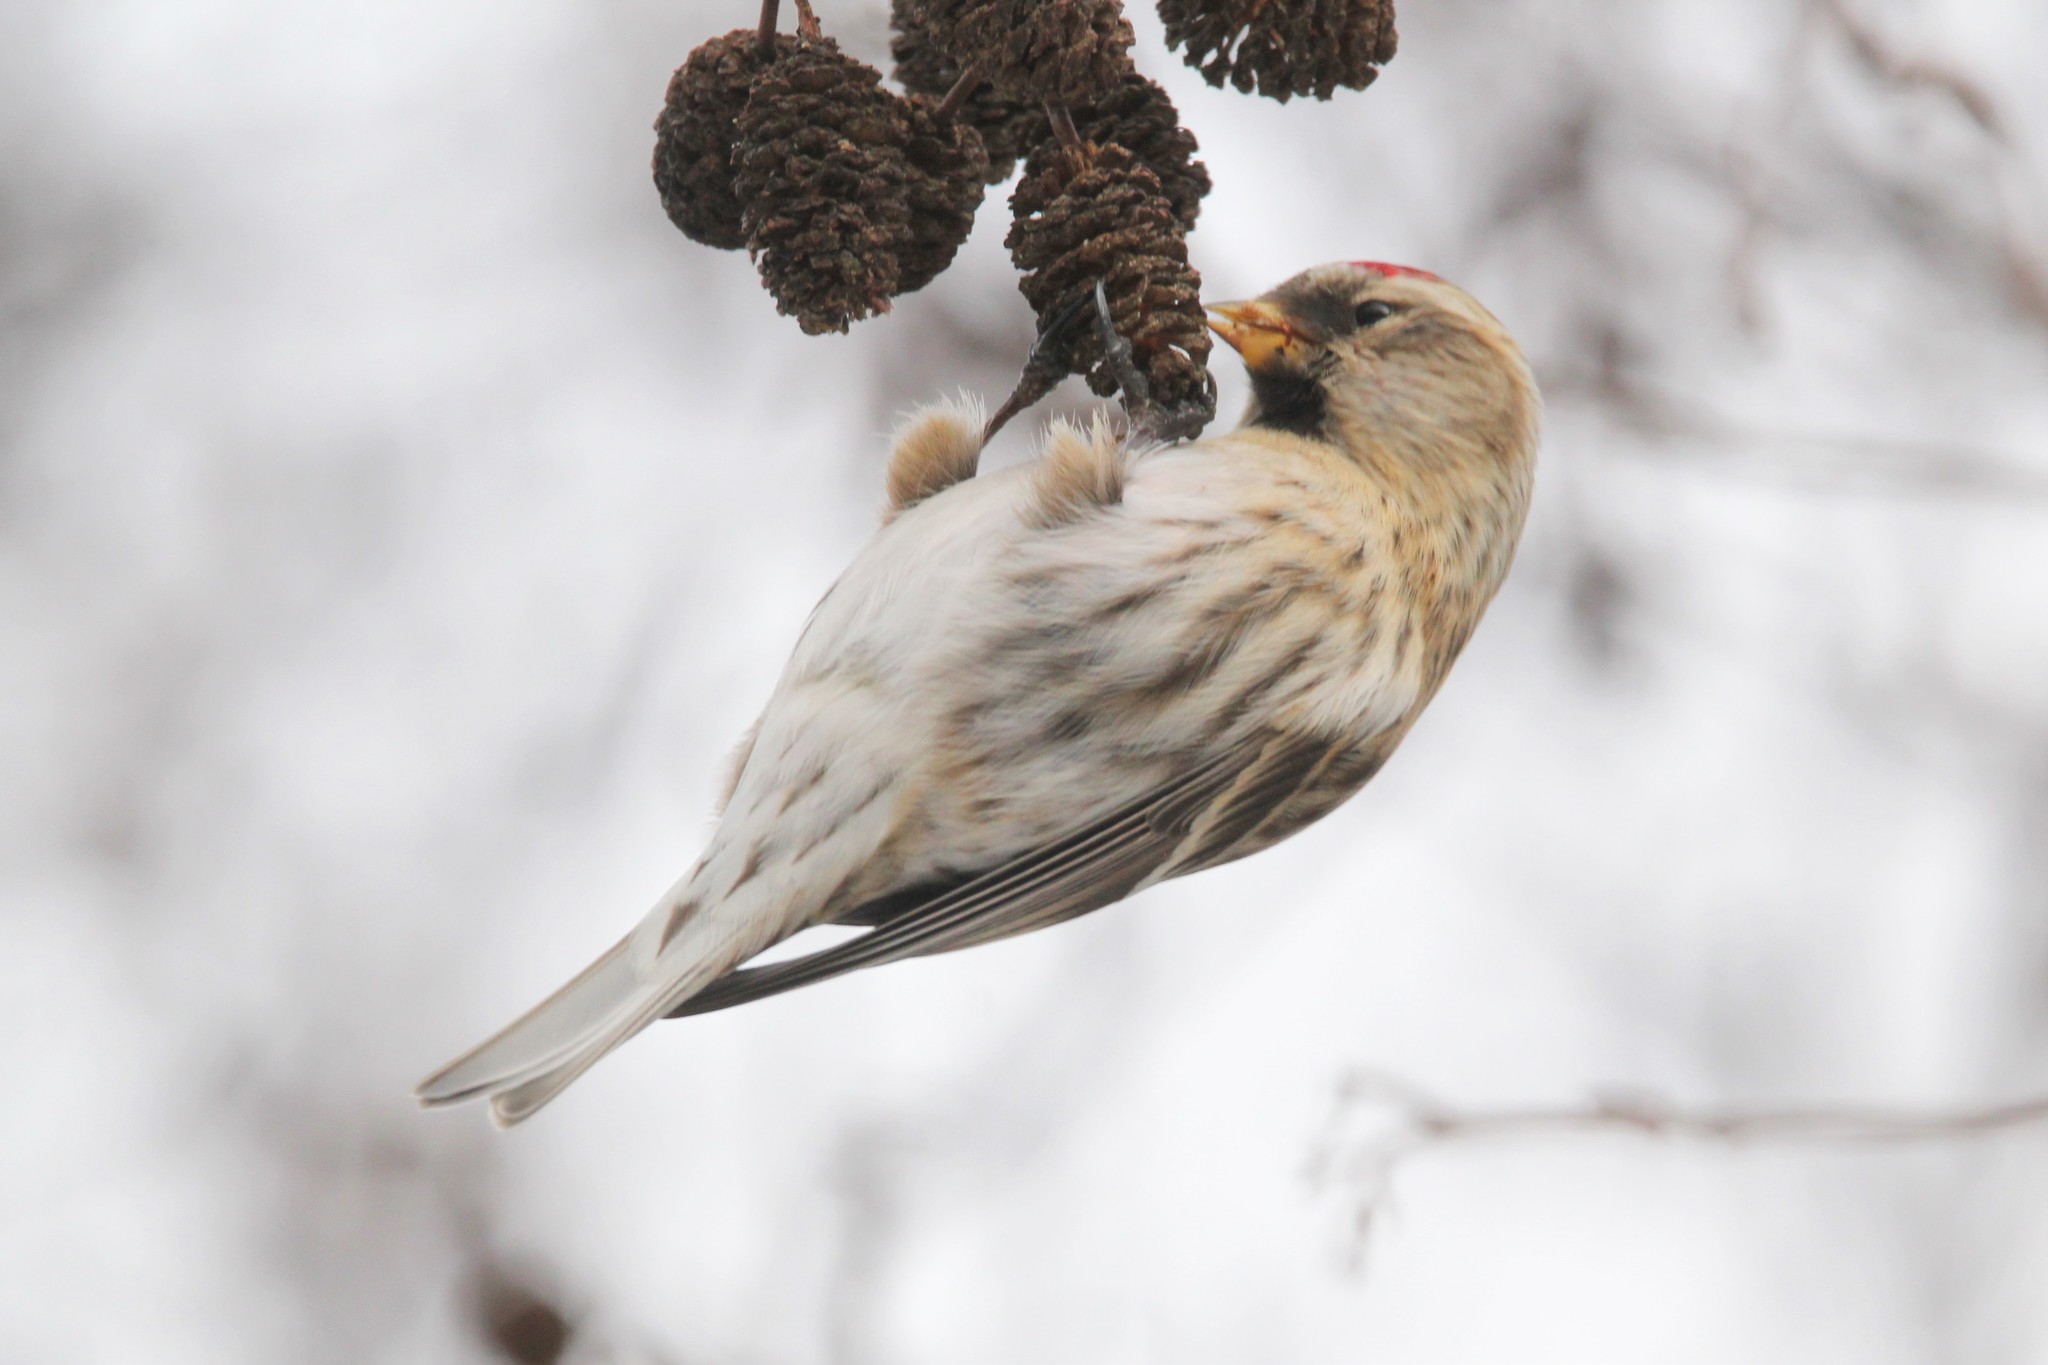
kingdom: Animalia
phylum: Chordata
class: Aves
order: Passeriformes
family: Fringillidae
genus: Acanthis
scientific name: Acanthis flammea
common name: Common redpoll
